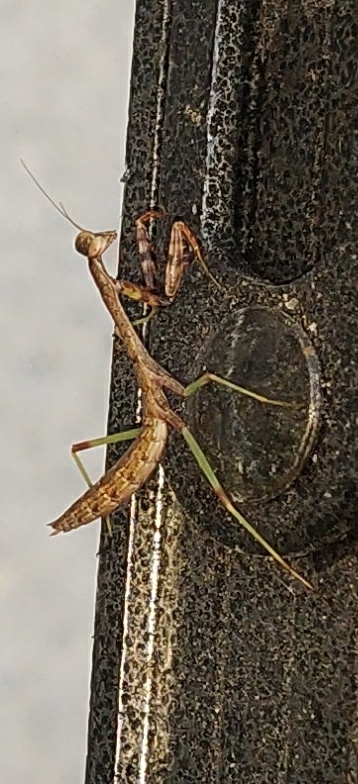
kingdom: Animalia
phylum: Arthropoda
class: Insecta
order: Mantodea
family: Mantidae
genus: Stagmomantis
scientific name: Stagmomantis carolina
